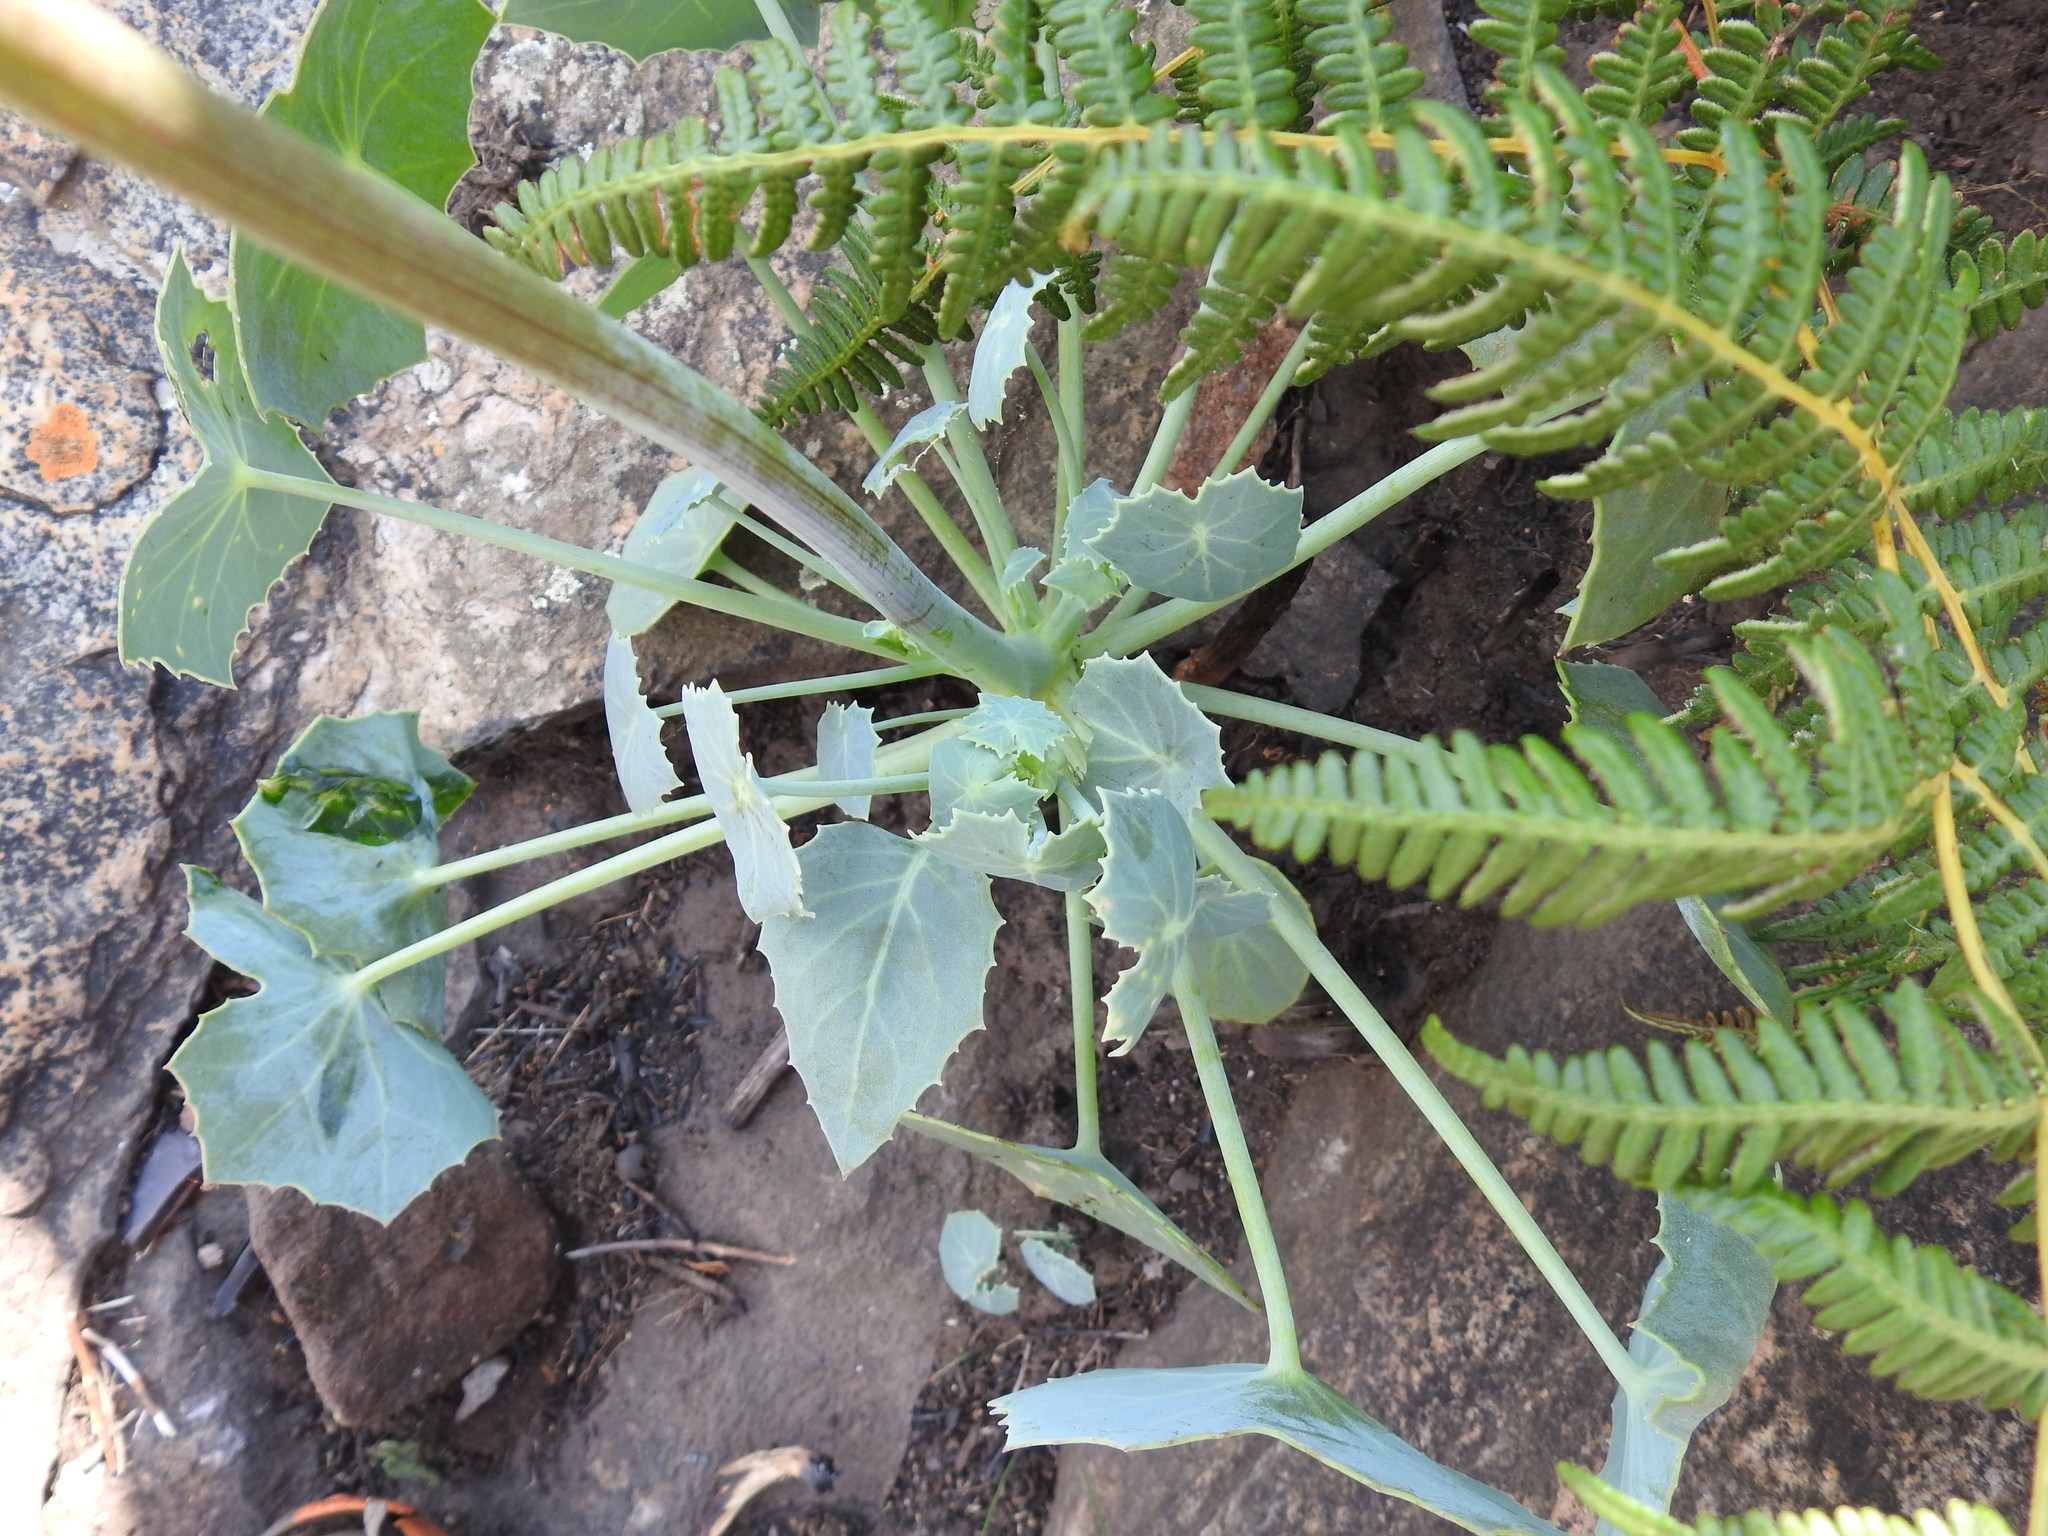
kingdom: Plantae
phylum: Tracheophyta
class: Magnoliopsida
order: Asterales
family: Asteraceae
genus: Senecio
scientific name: Senecio oxyriifolius
